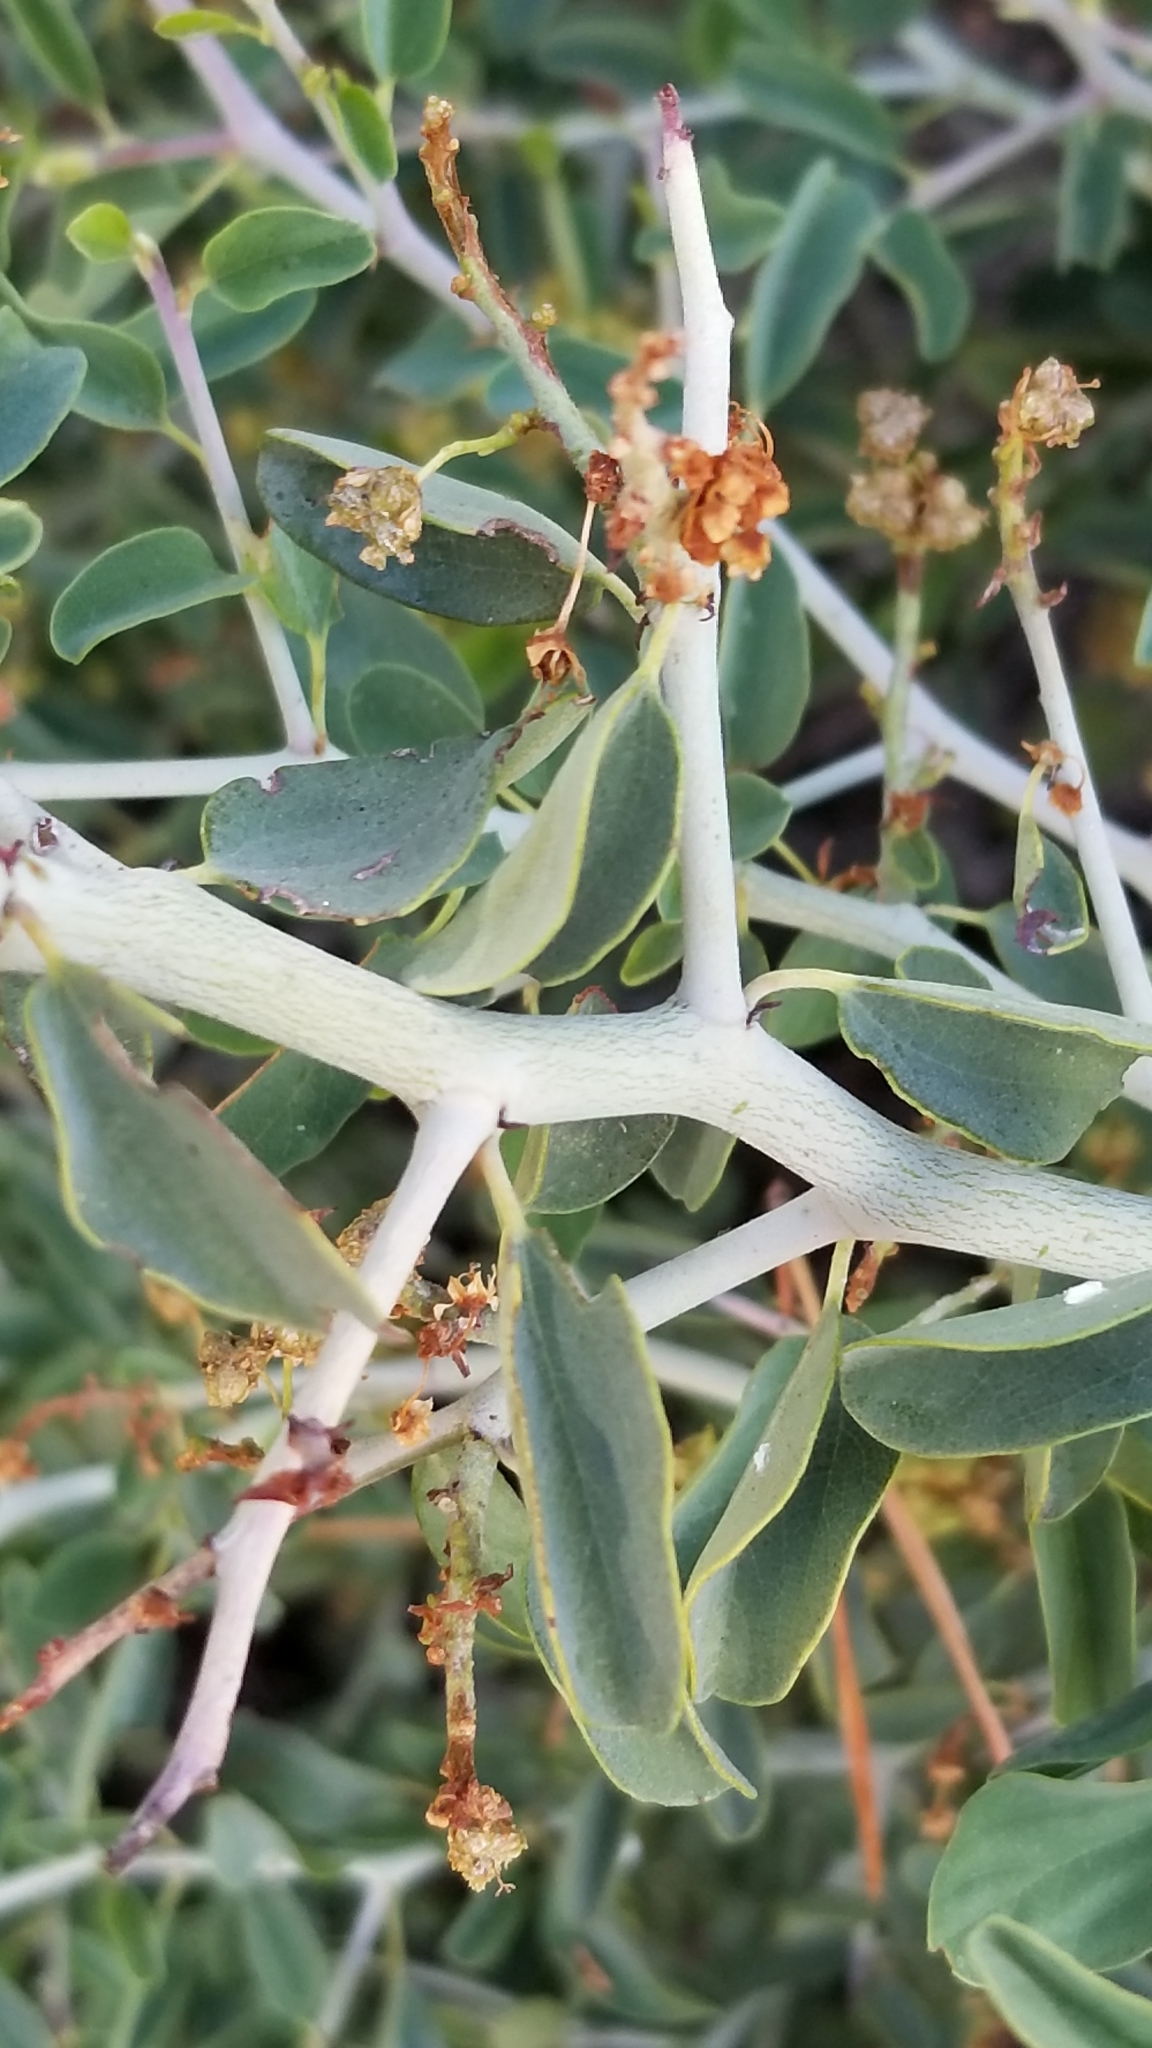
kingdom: Plantae
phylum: Tracheophyta
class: Magnoliopsida
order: Rosales
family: Rhamnaceae
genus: Ceanothus
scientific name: Ceanothus cordulatus
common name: Mountain whitethorn
